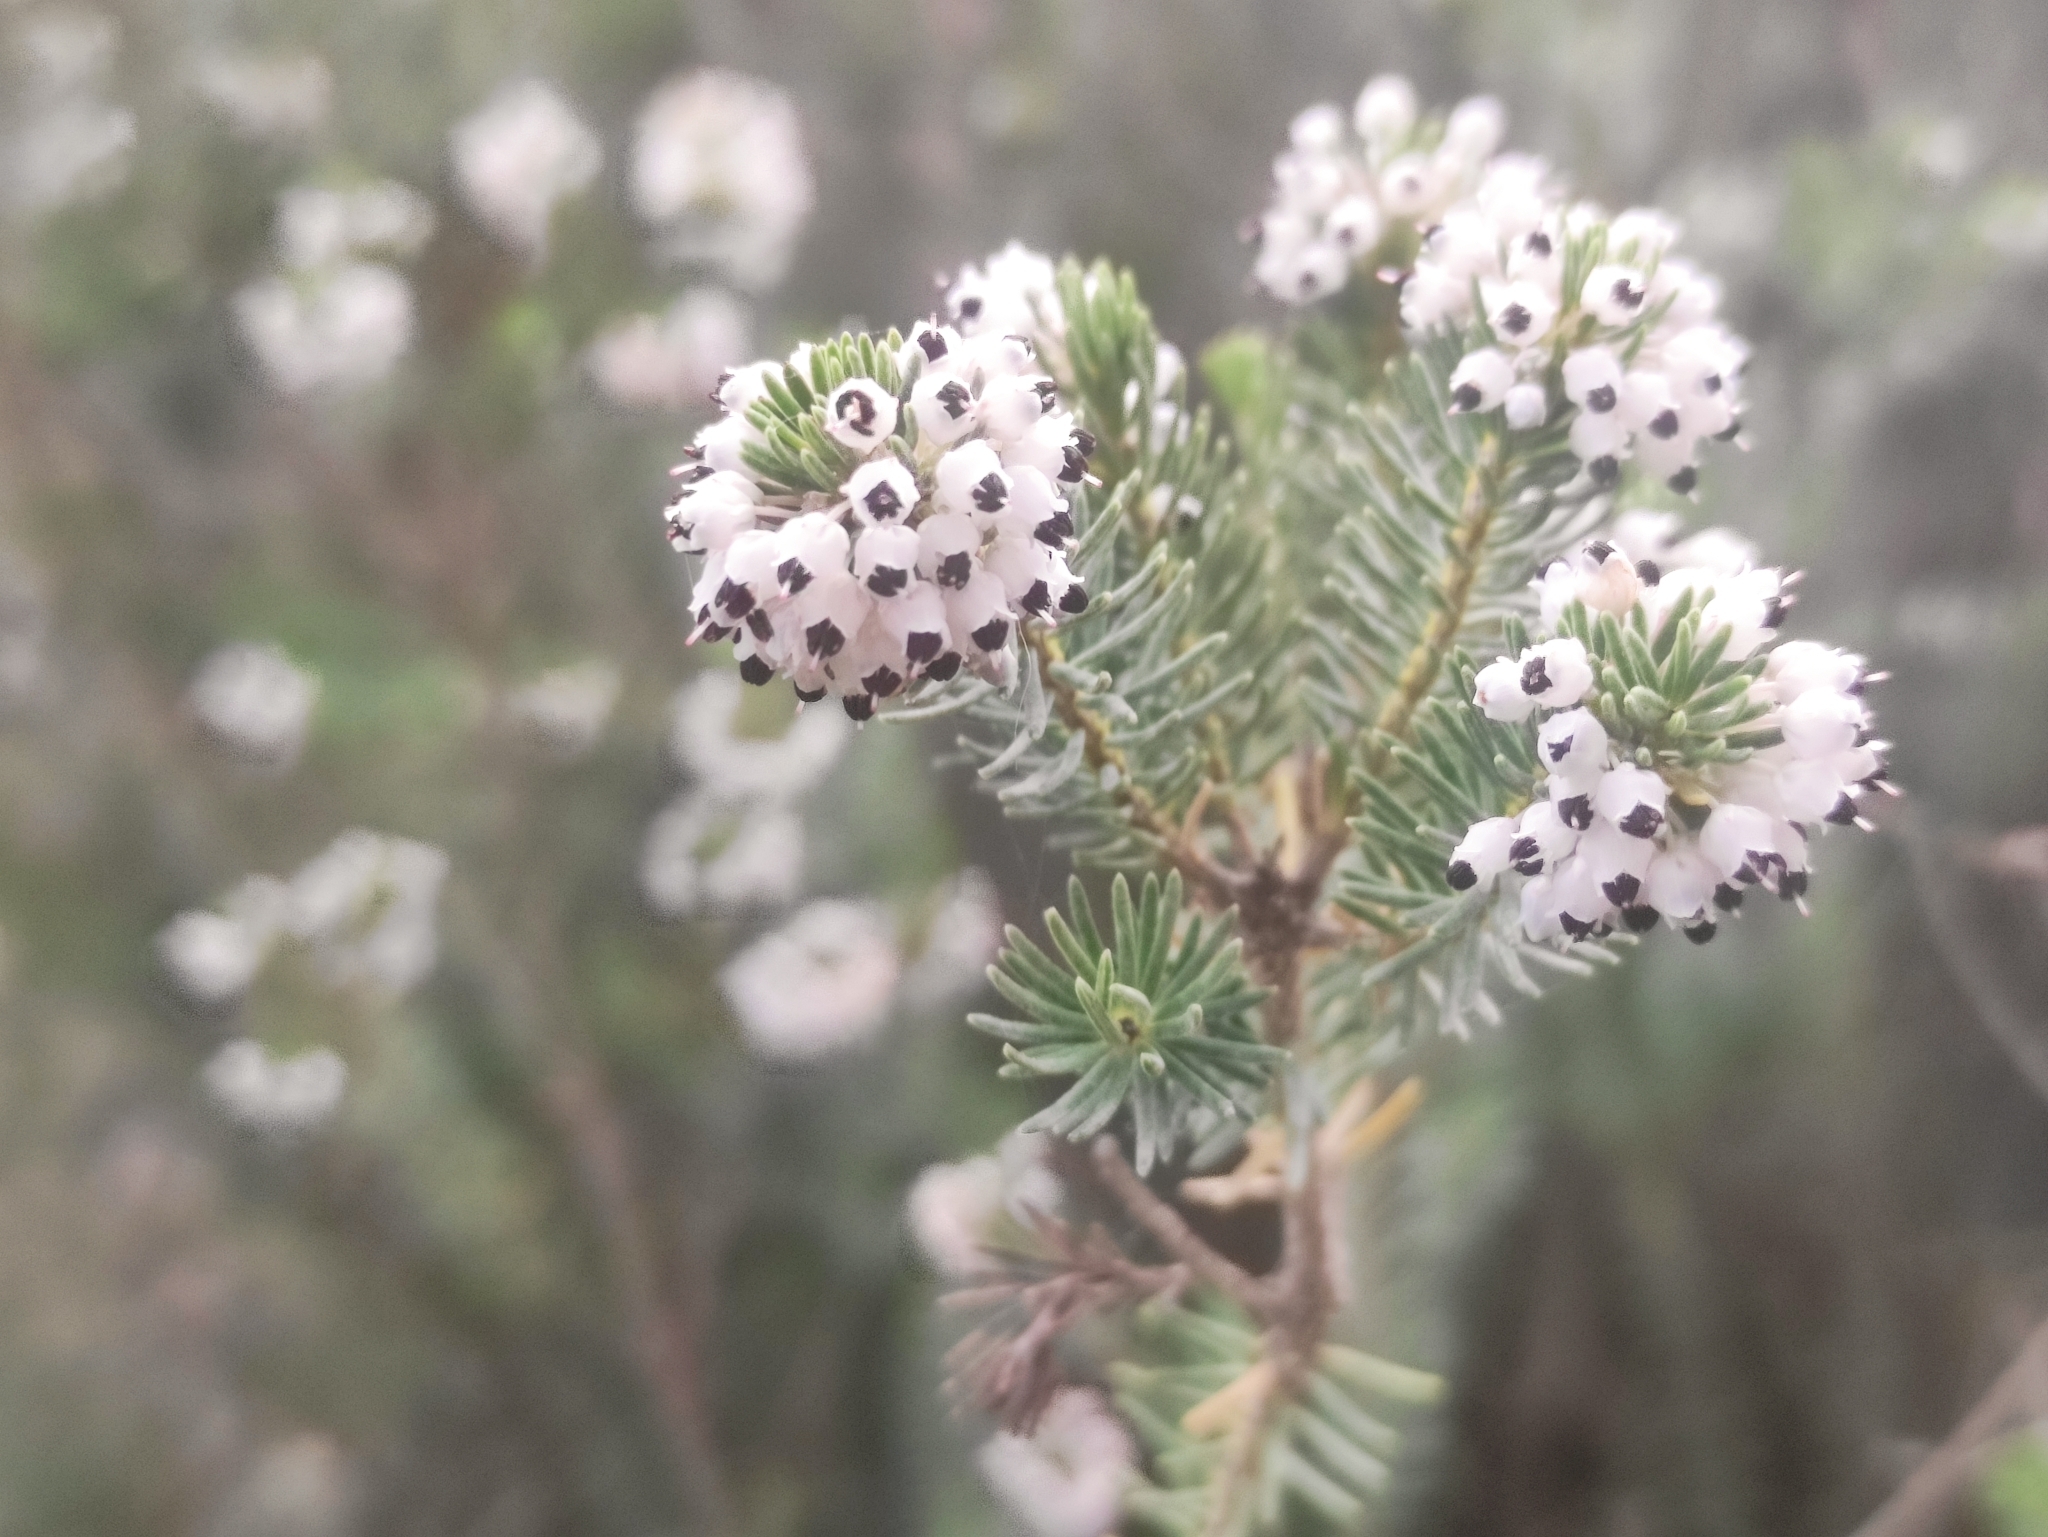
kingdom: Plantae
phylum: Tracheophyta
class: Magnoliopsida
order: Ericales
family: Ericaceae
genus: Erica
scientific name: Erica multiflora
